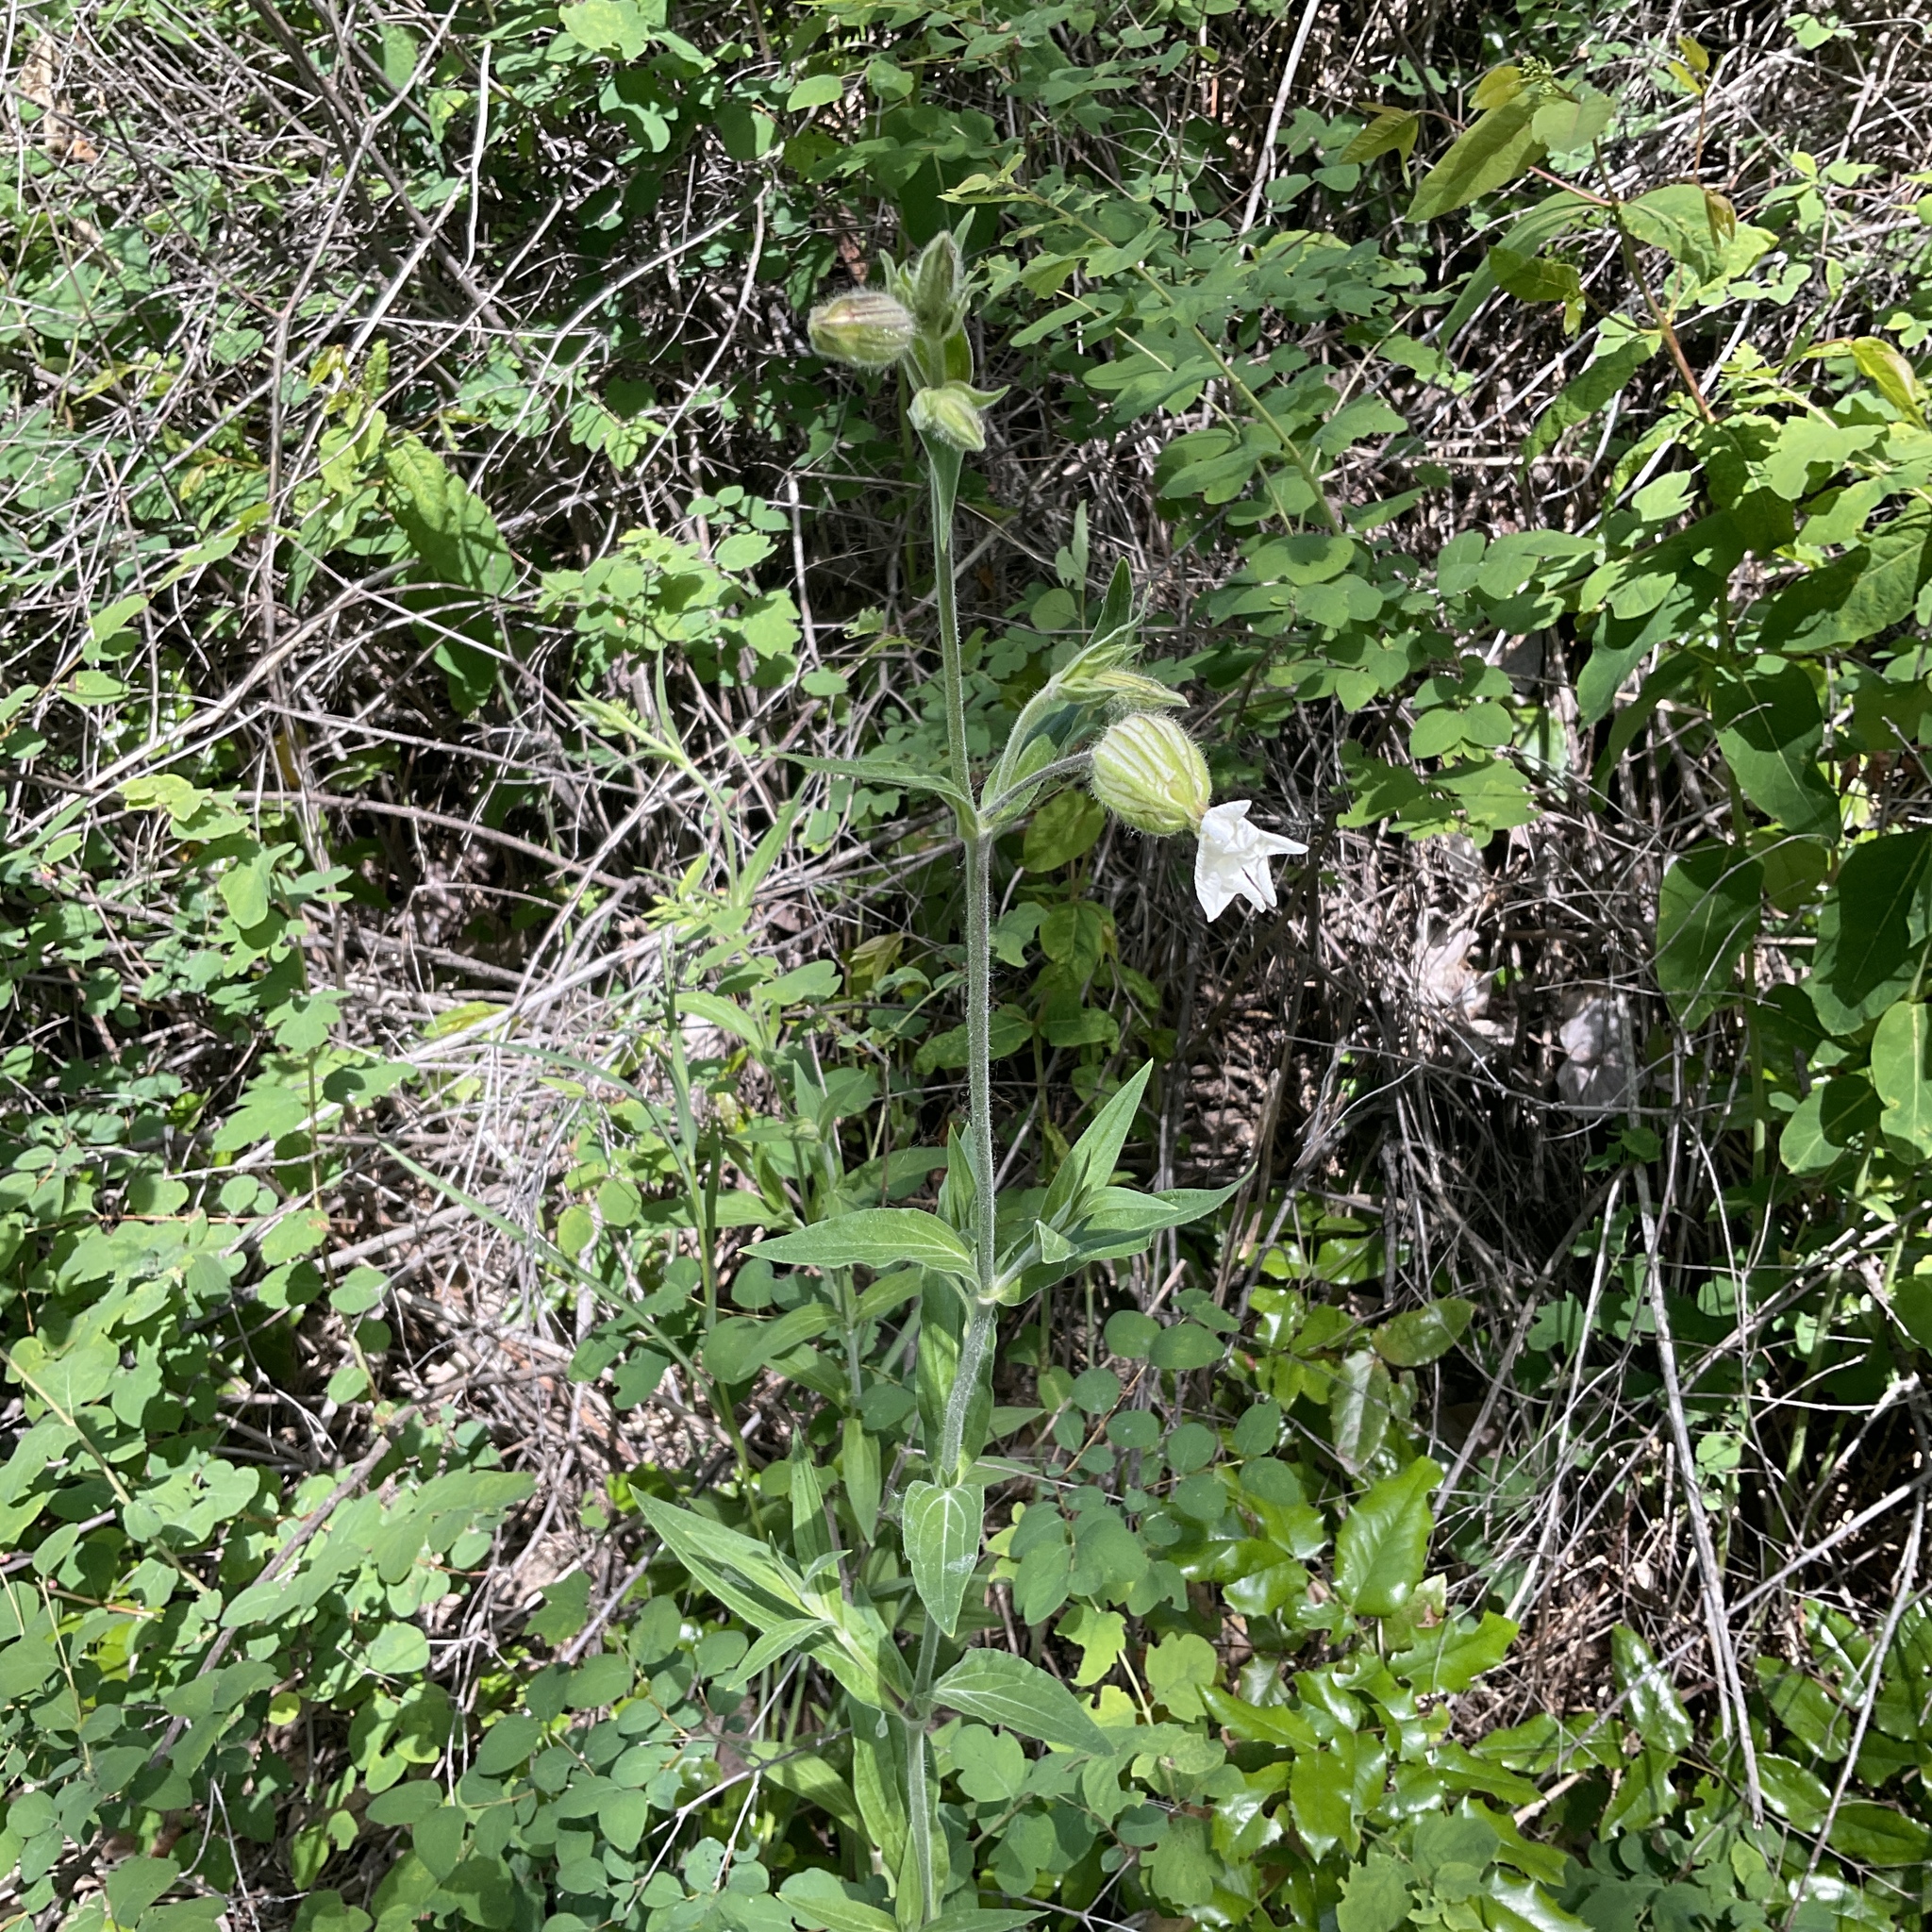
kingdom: Plantae
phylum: Tracheophyta
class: Magnoliopsida
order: Caryophyllales
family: Caryophyllaceae
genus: Silene
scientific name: Silene latifolia
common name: White campion
